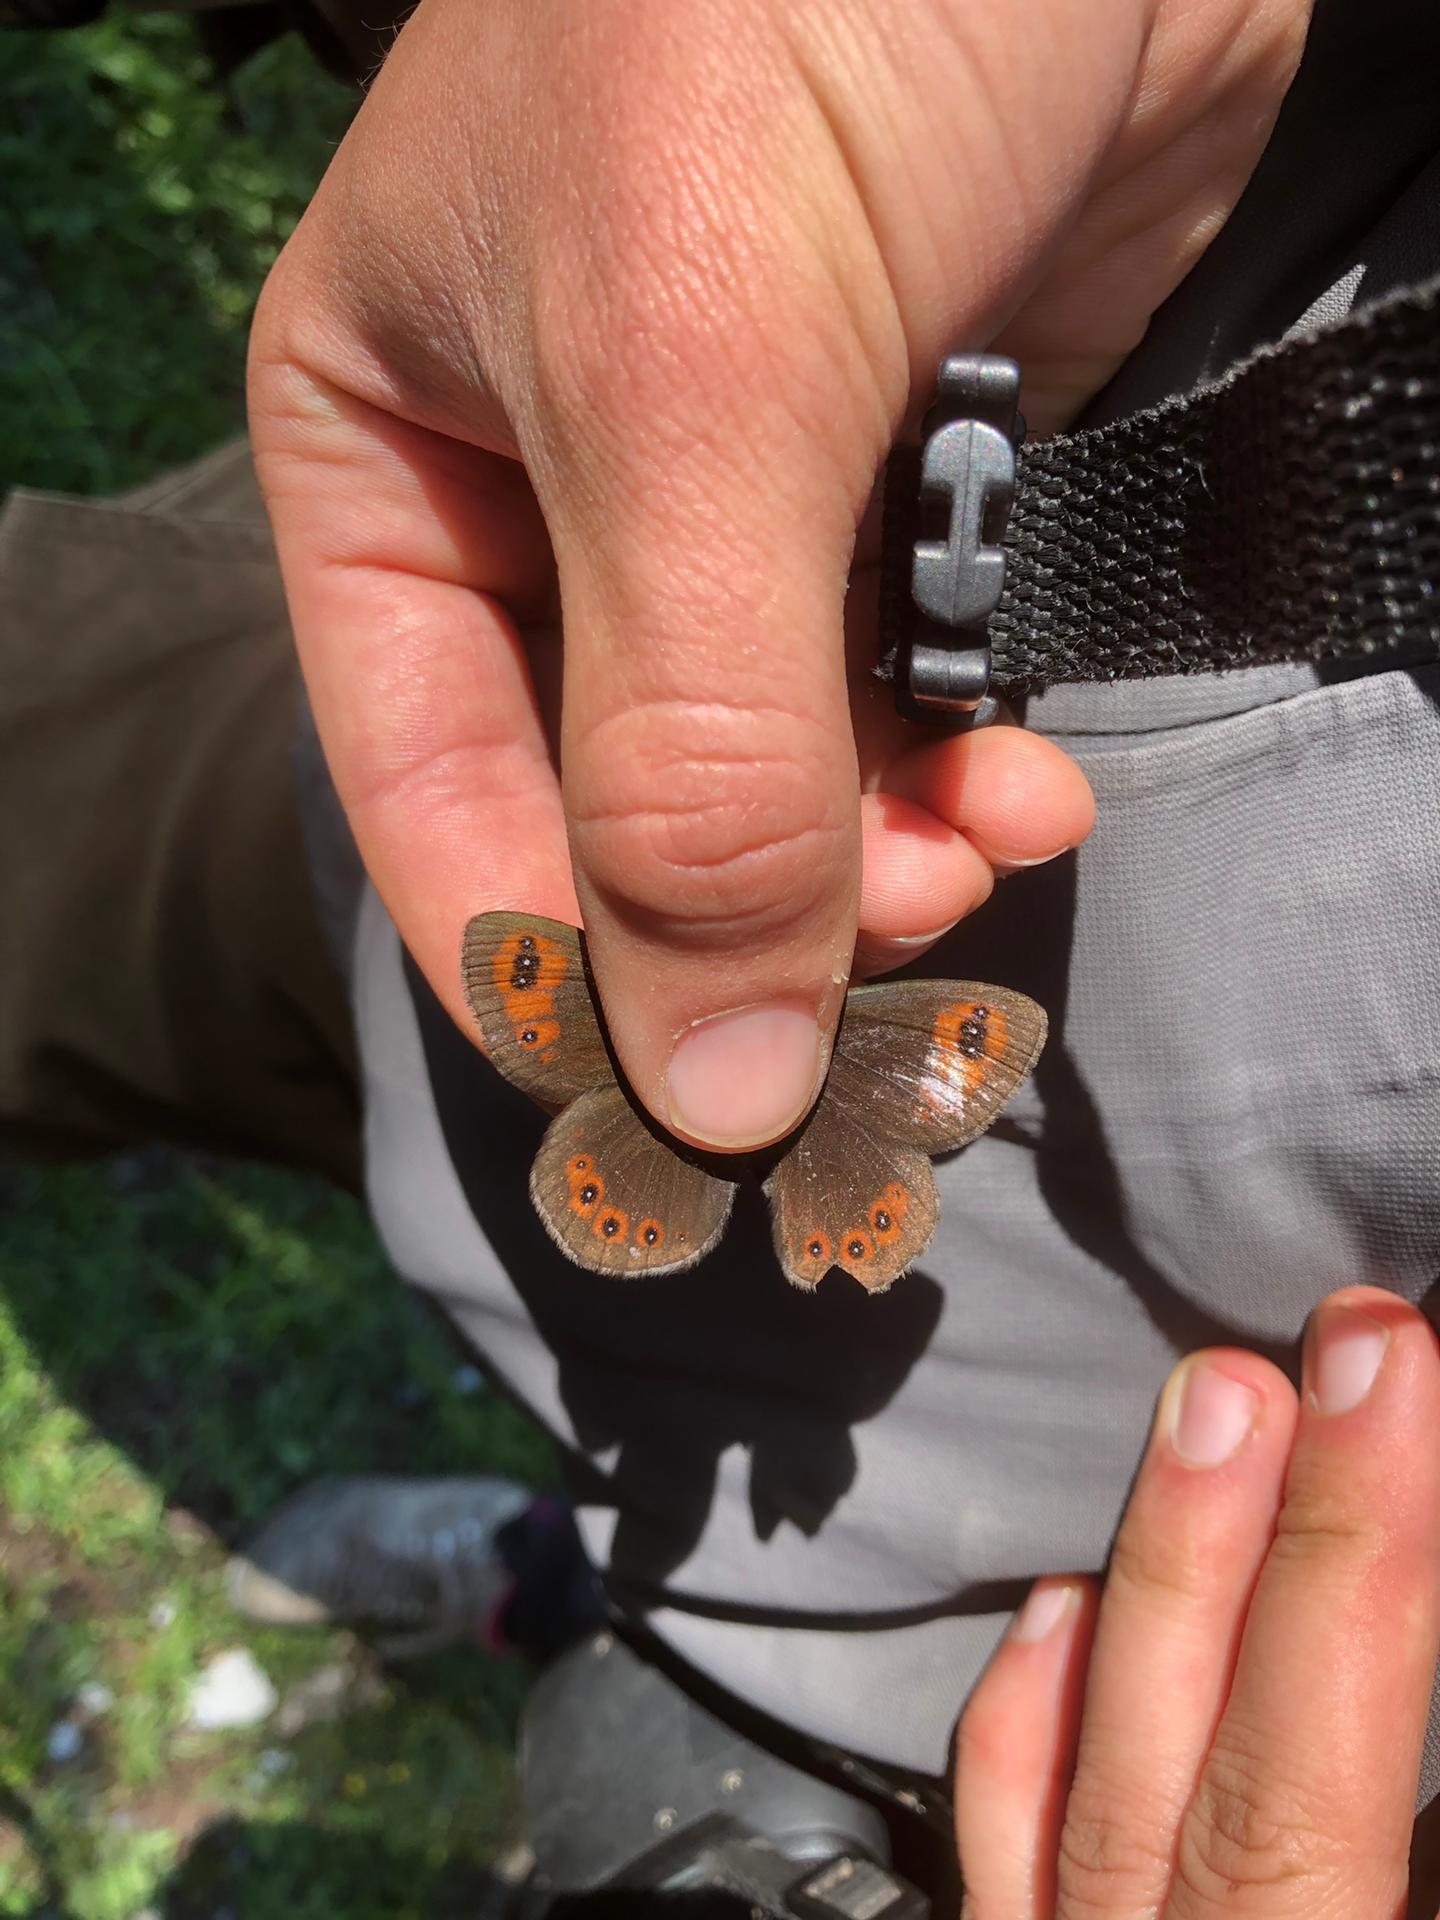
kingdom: Animalia
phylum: Arthropoda
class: Insecta
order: Lepidoptera
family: Nymphalidae
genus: Erebia
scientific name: Erebia triarius
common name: De prunner’s ringlet
